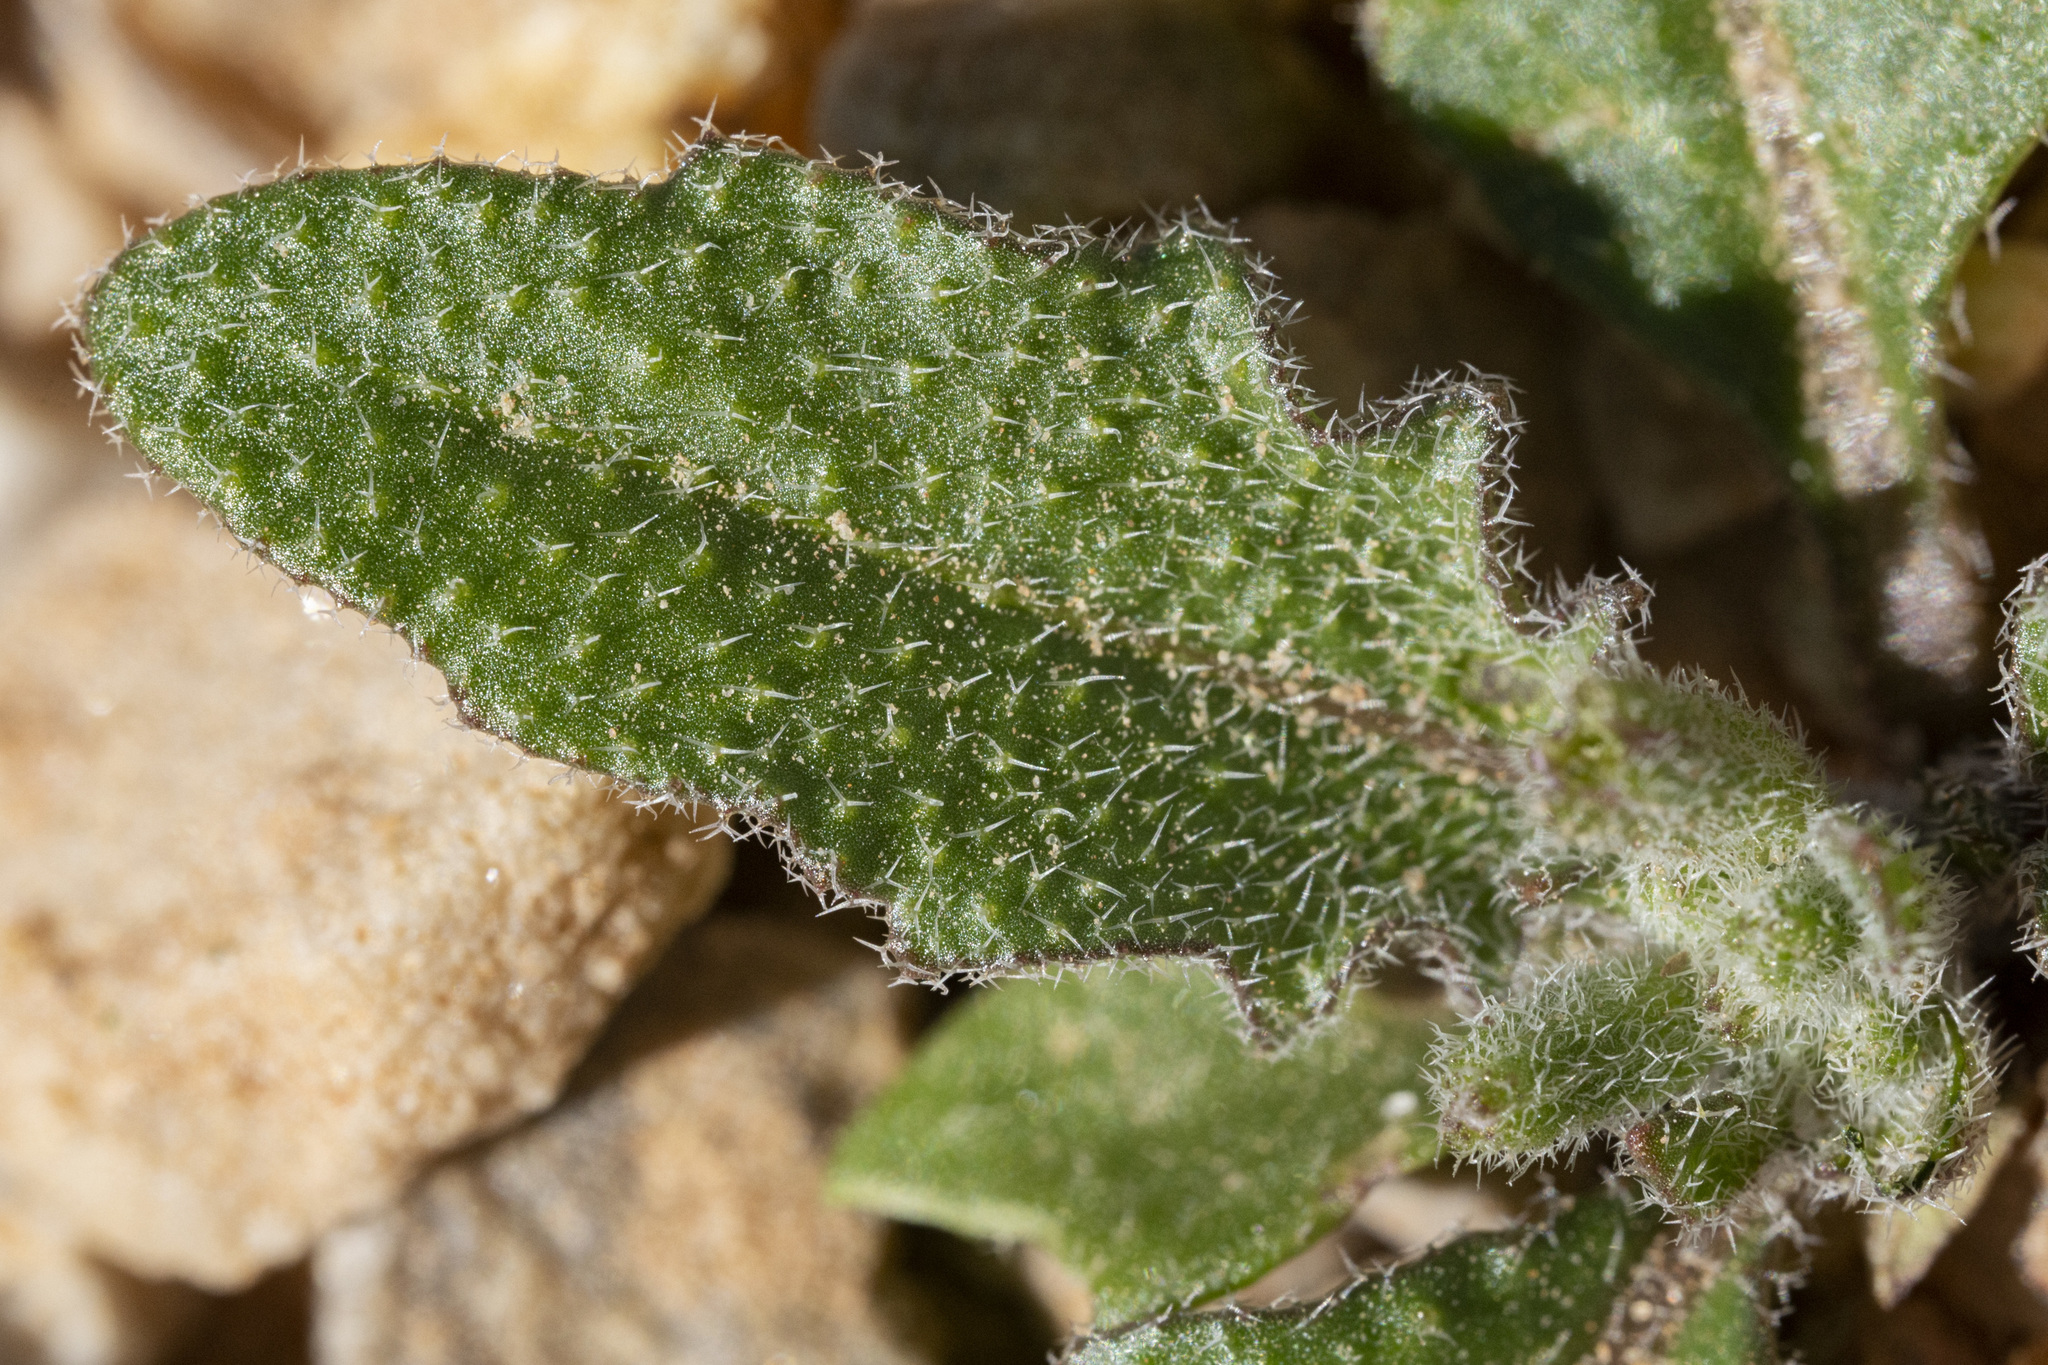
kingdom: Plantae
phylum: Tracheophyta
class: Magnoliopsida
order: Brassicales
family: Brassicaceae
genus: Strigosella
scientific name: Strigosella africana
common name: African mustard
